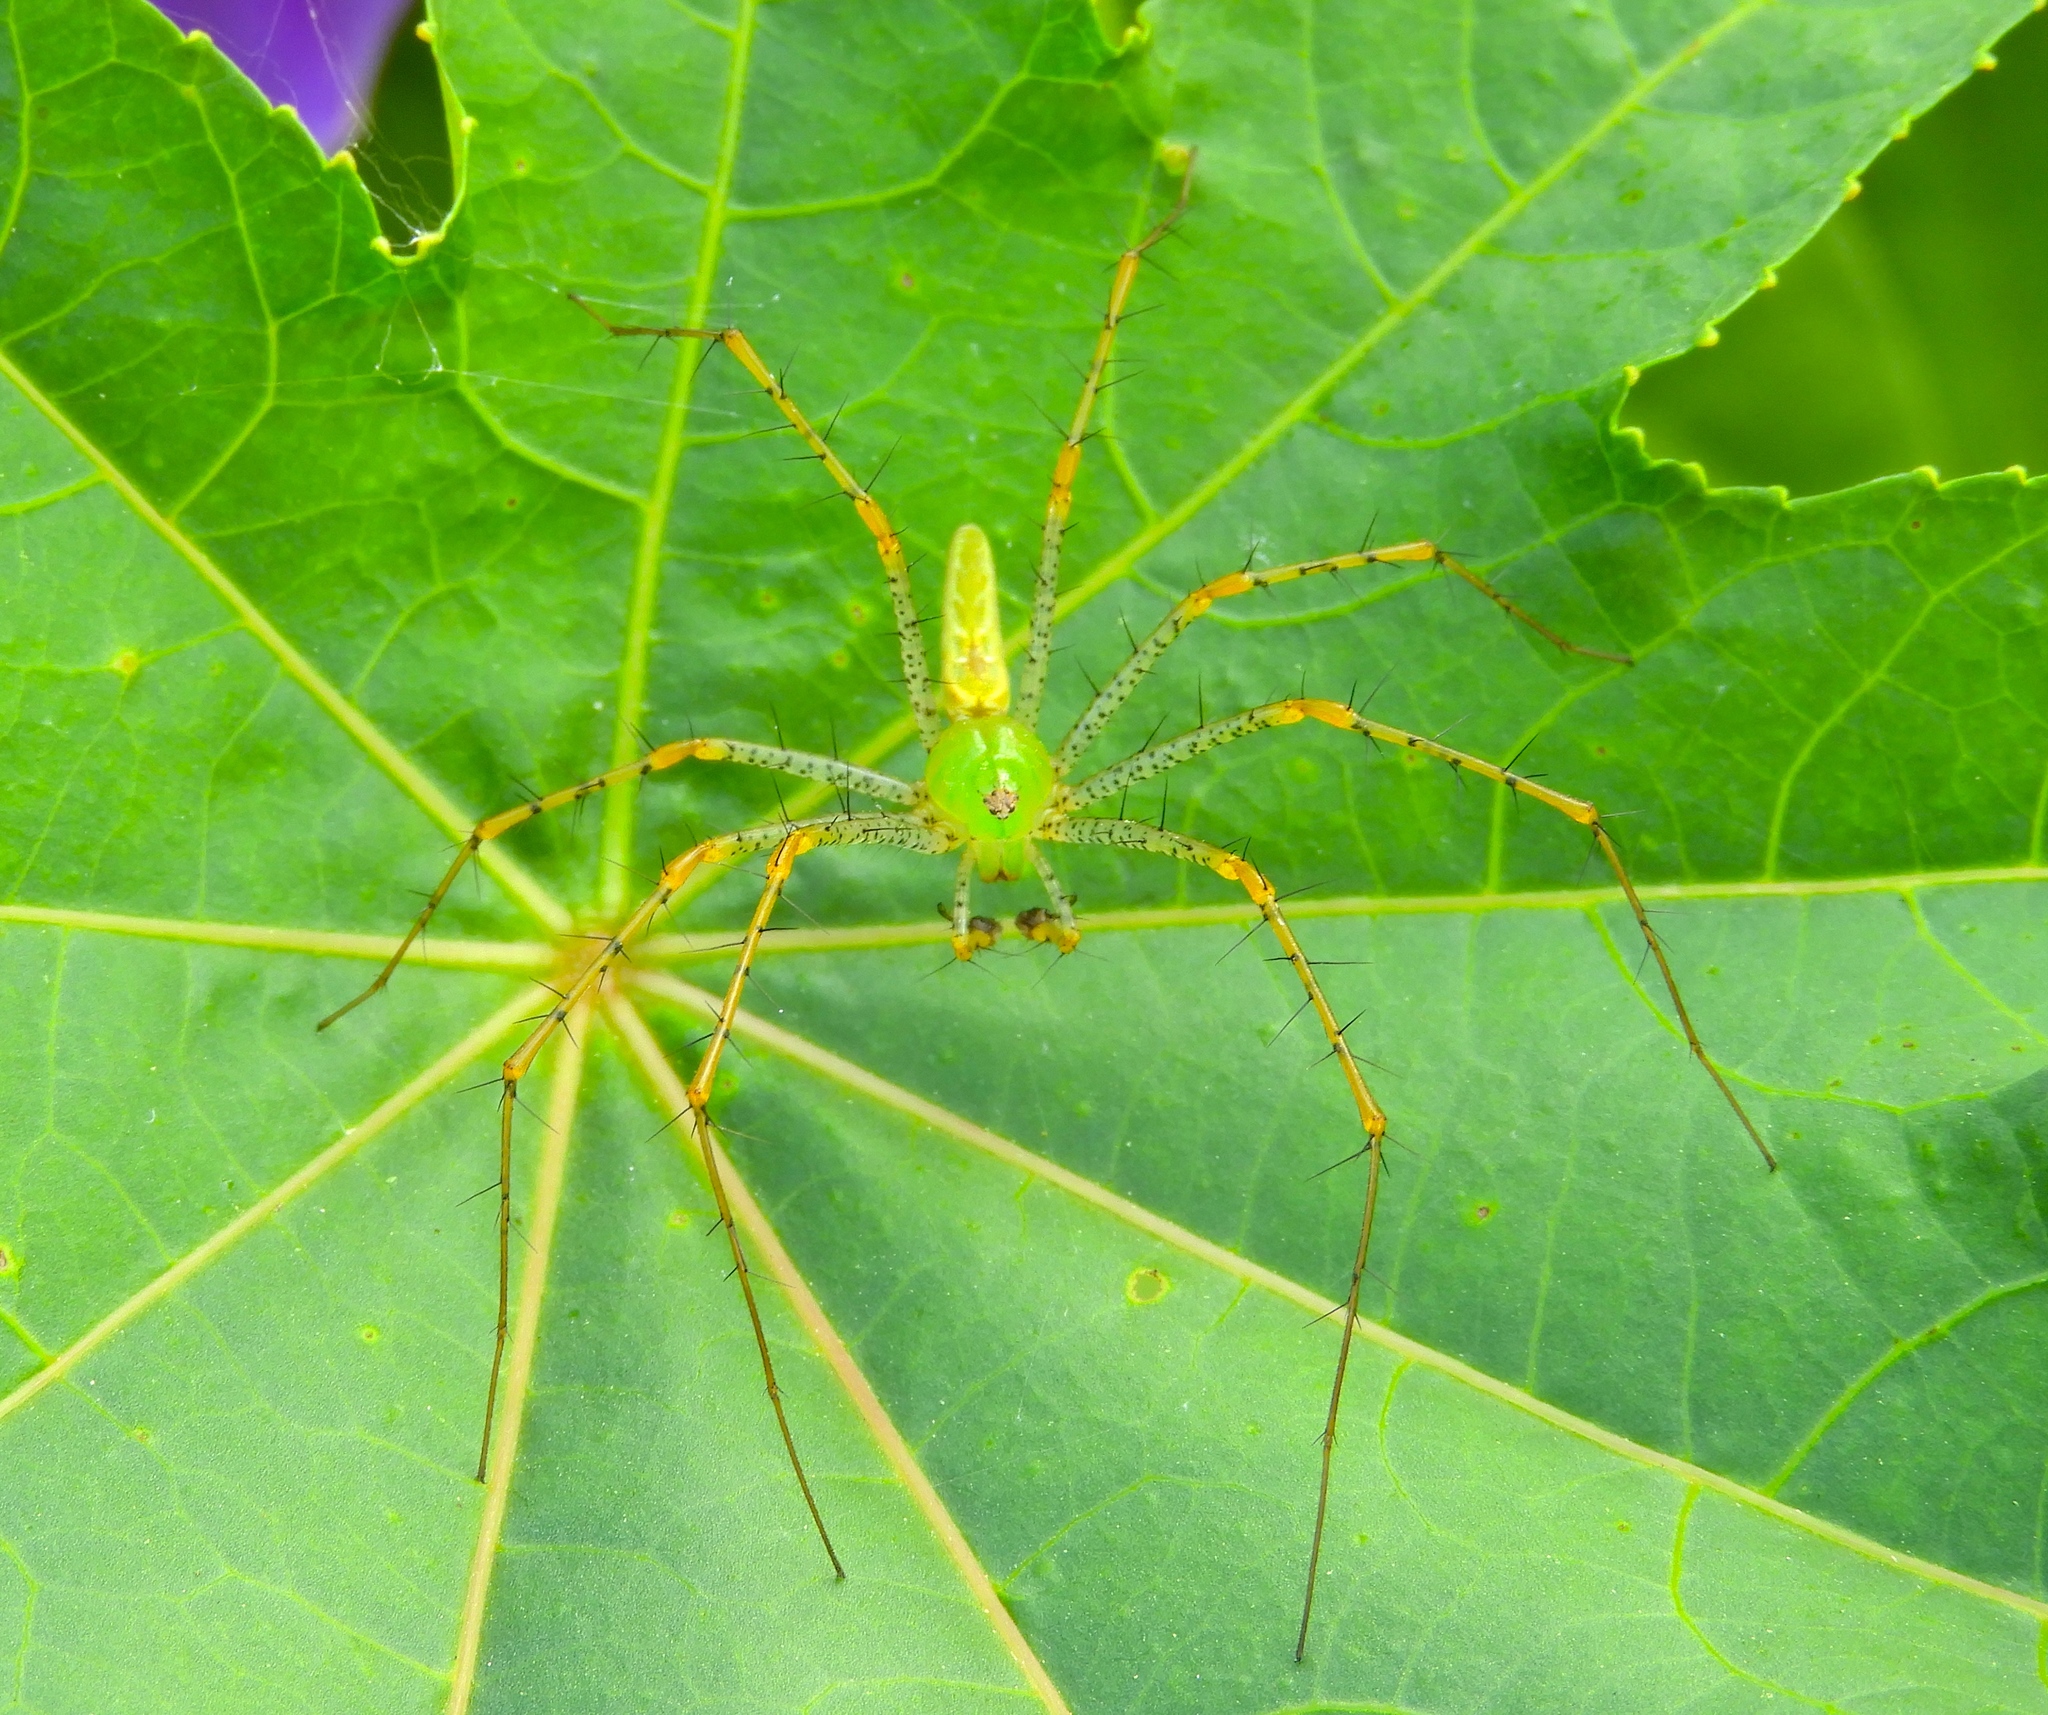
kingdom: Animalia
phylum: Arthropoda
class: Arachnida
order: Araneae
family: Oxyopidae
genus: Peucetia
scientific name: Peucetia
